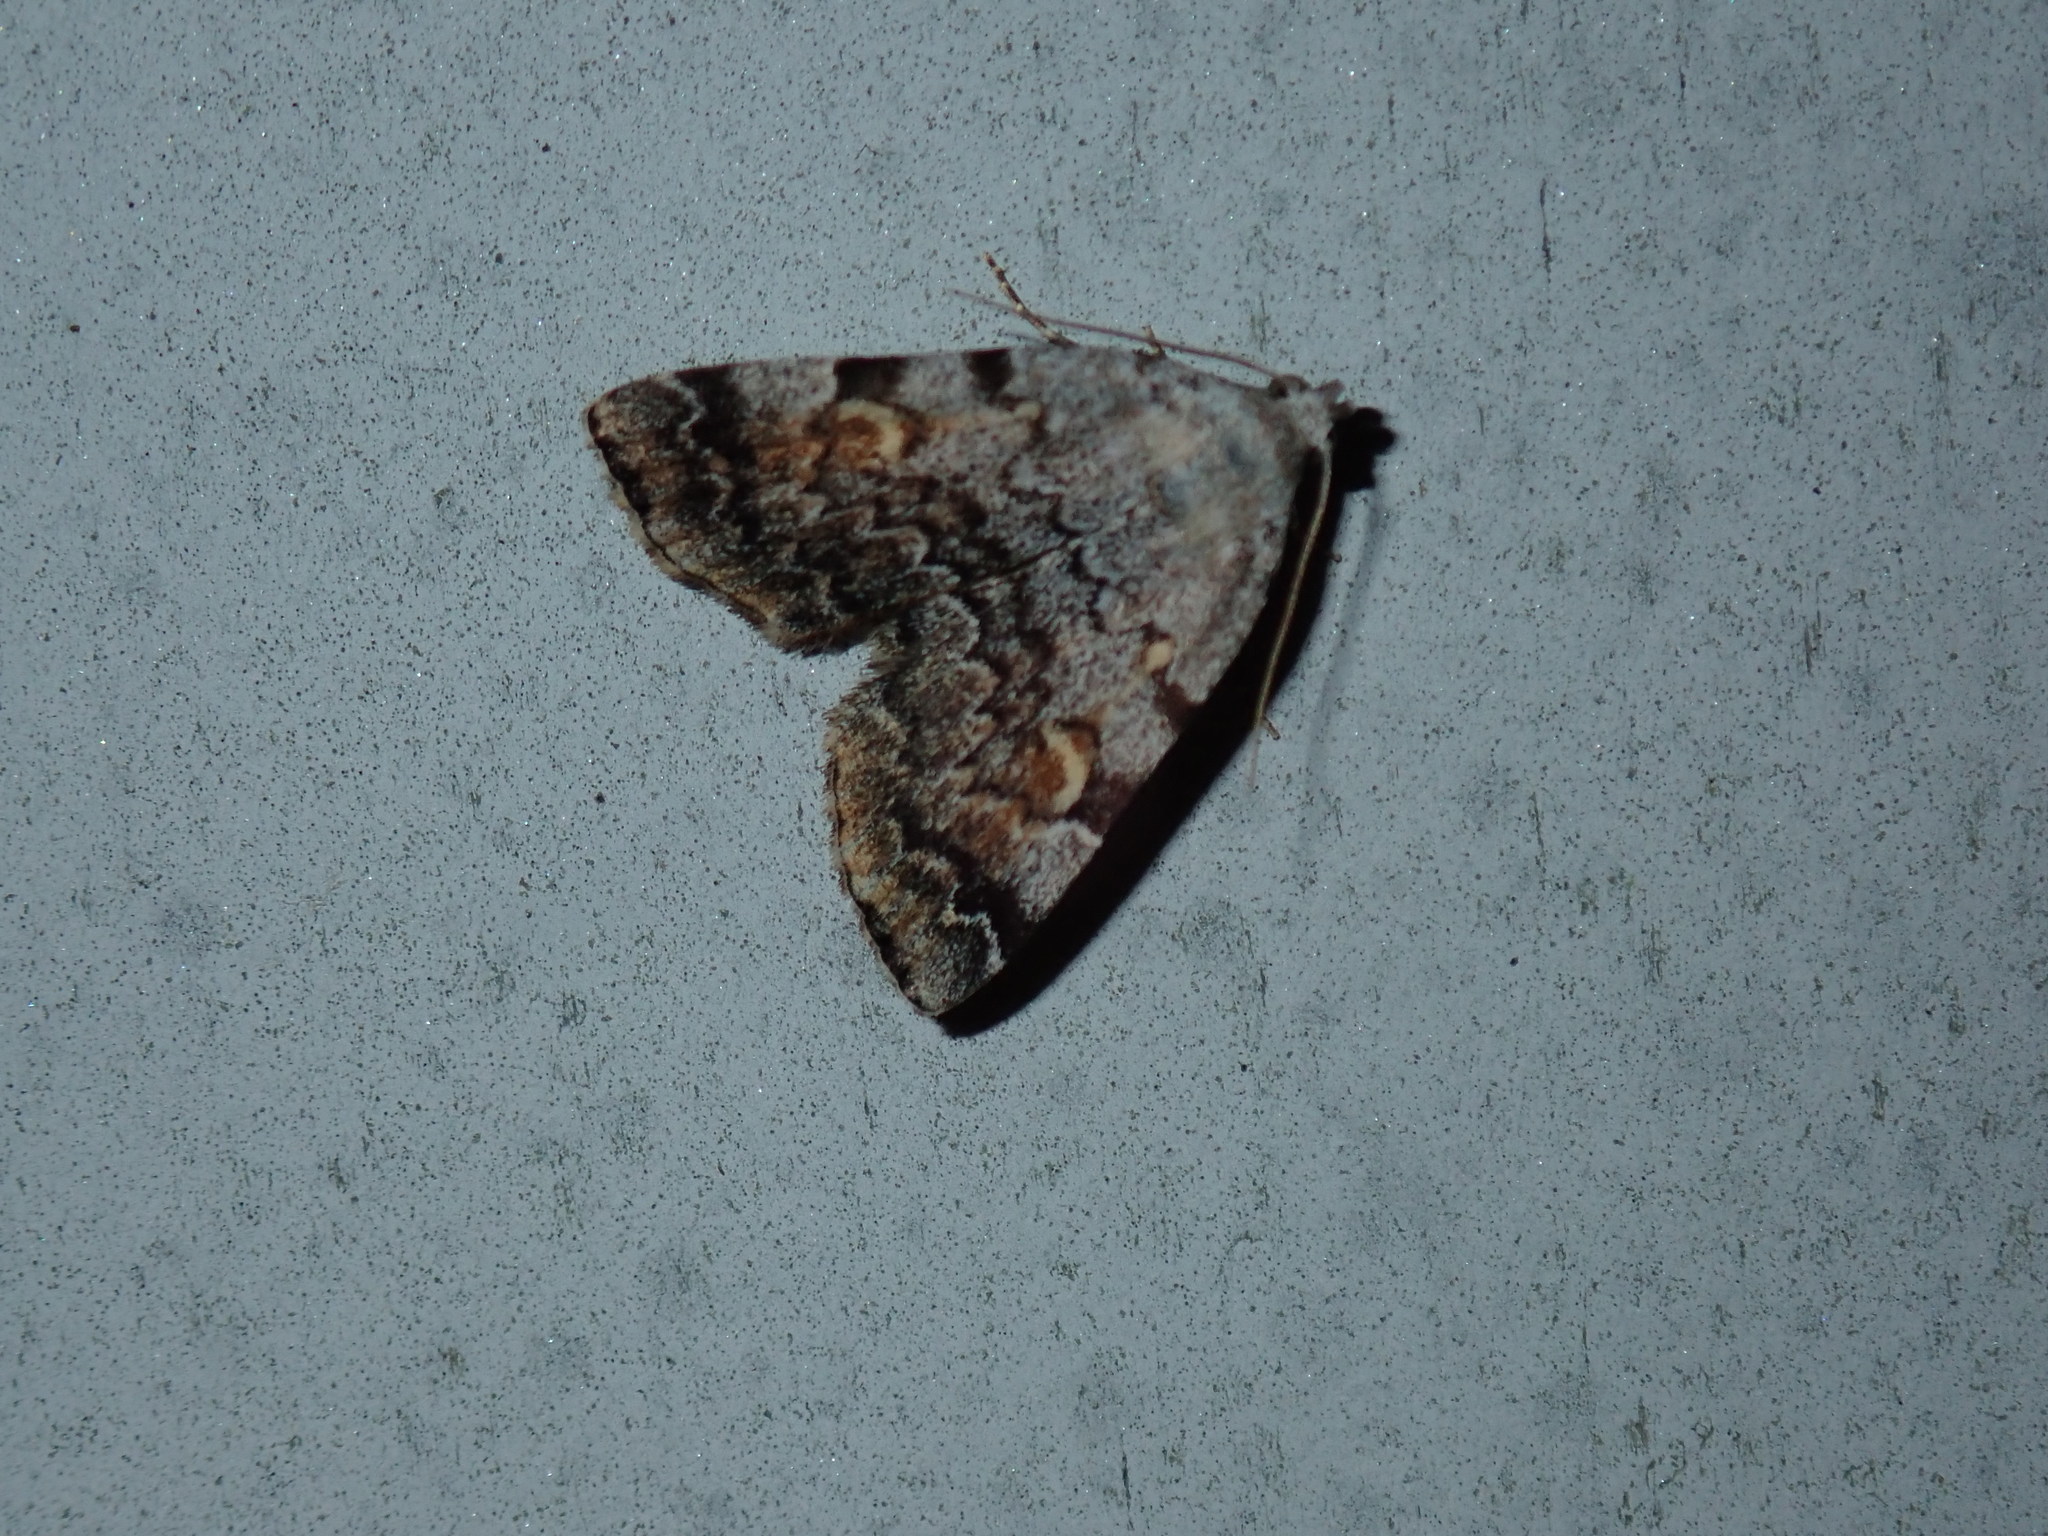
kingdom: Animalia
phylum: Arthropoda
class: Insecta
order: Lepidoptera
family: Erebidae
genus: Idia
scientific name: Idia americalis
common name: American idia moth
